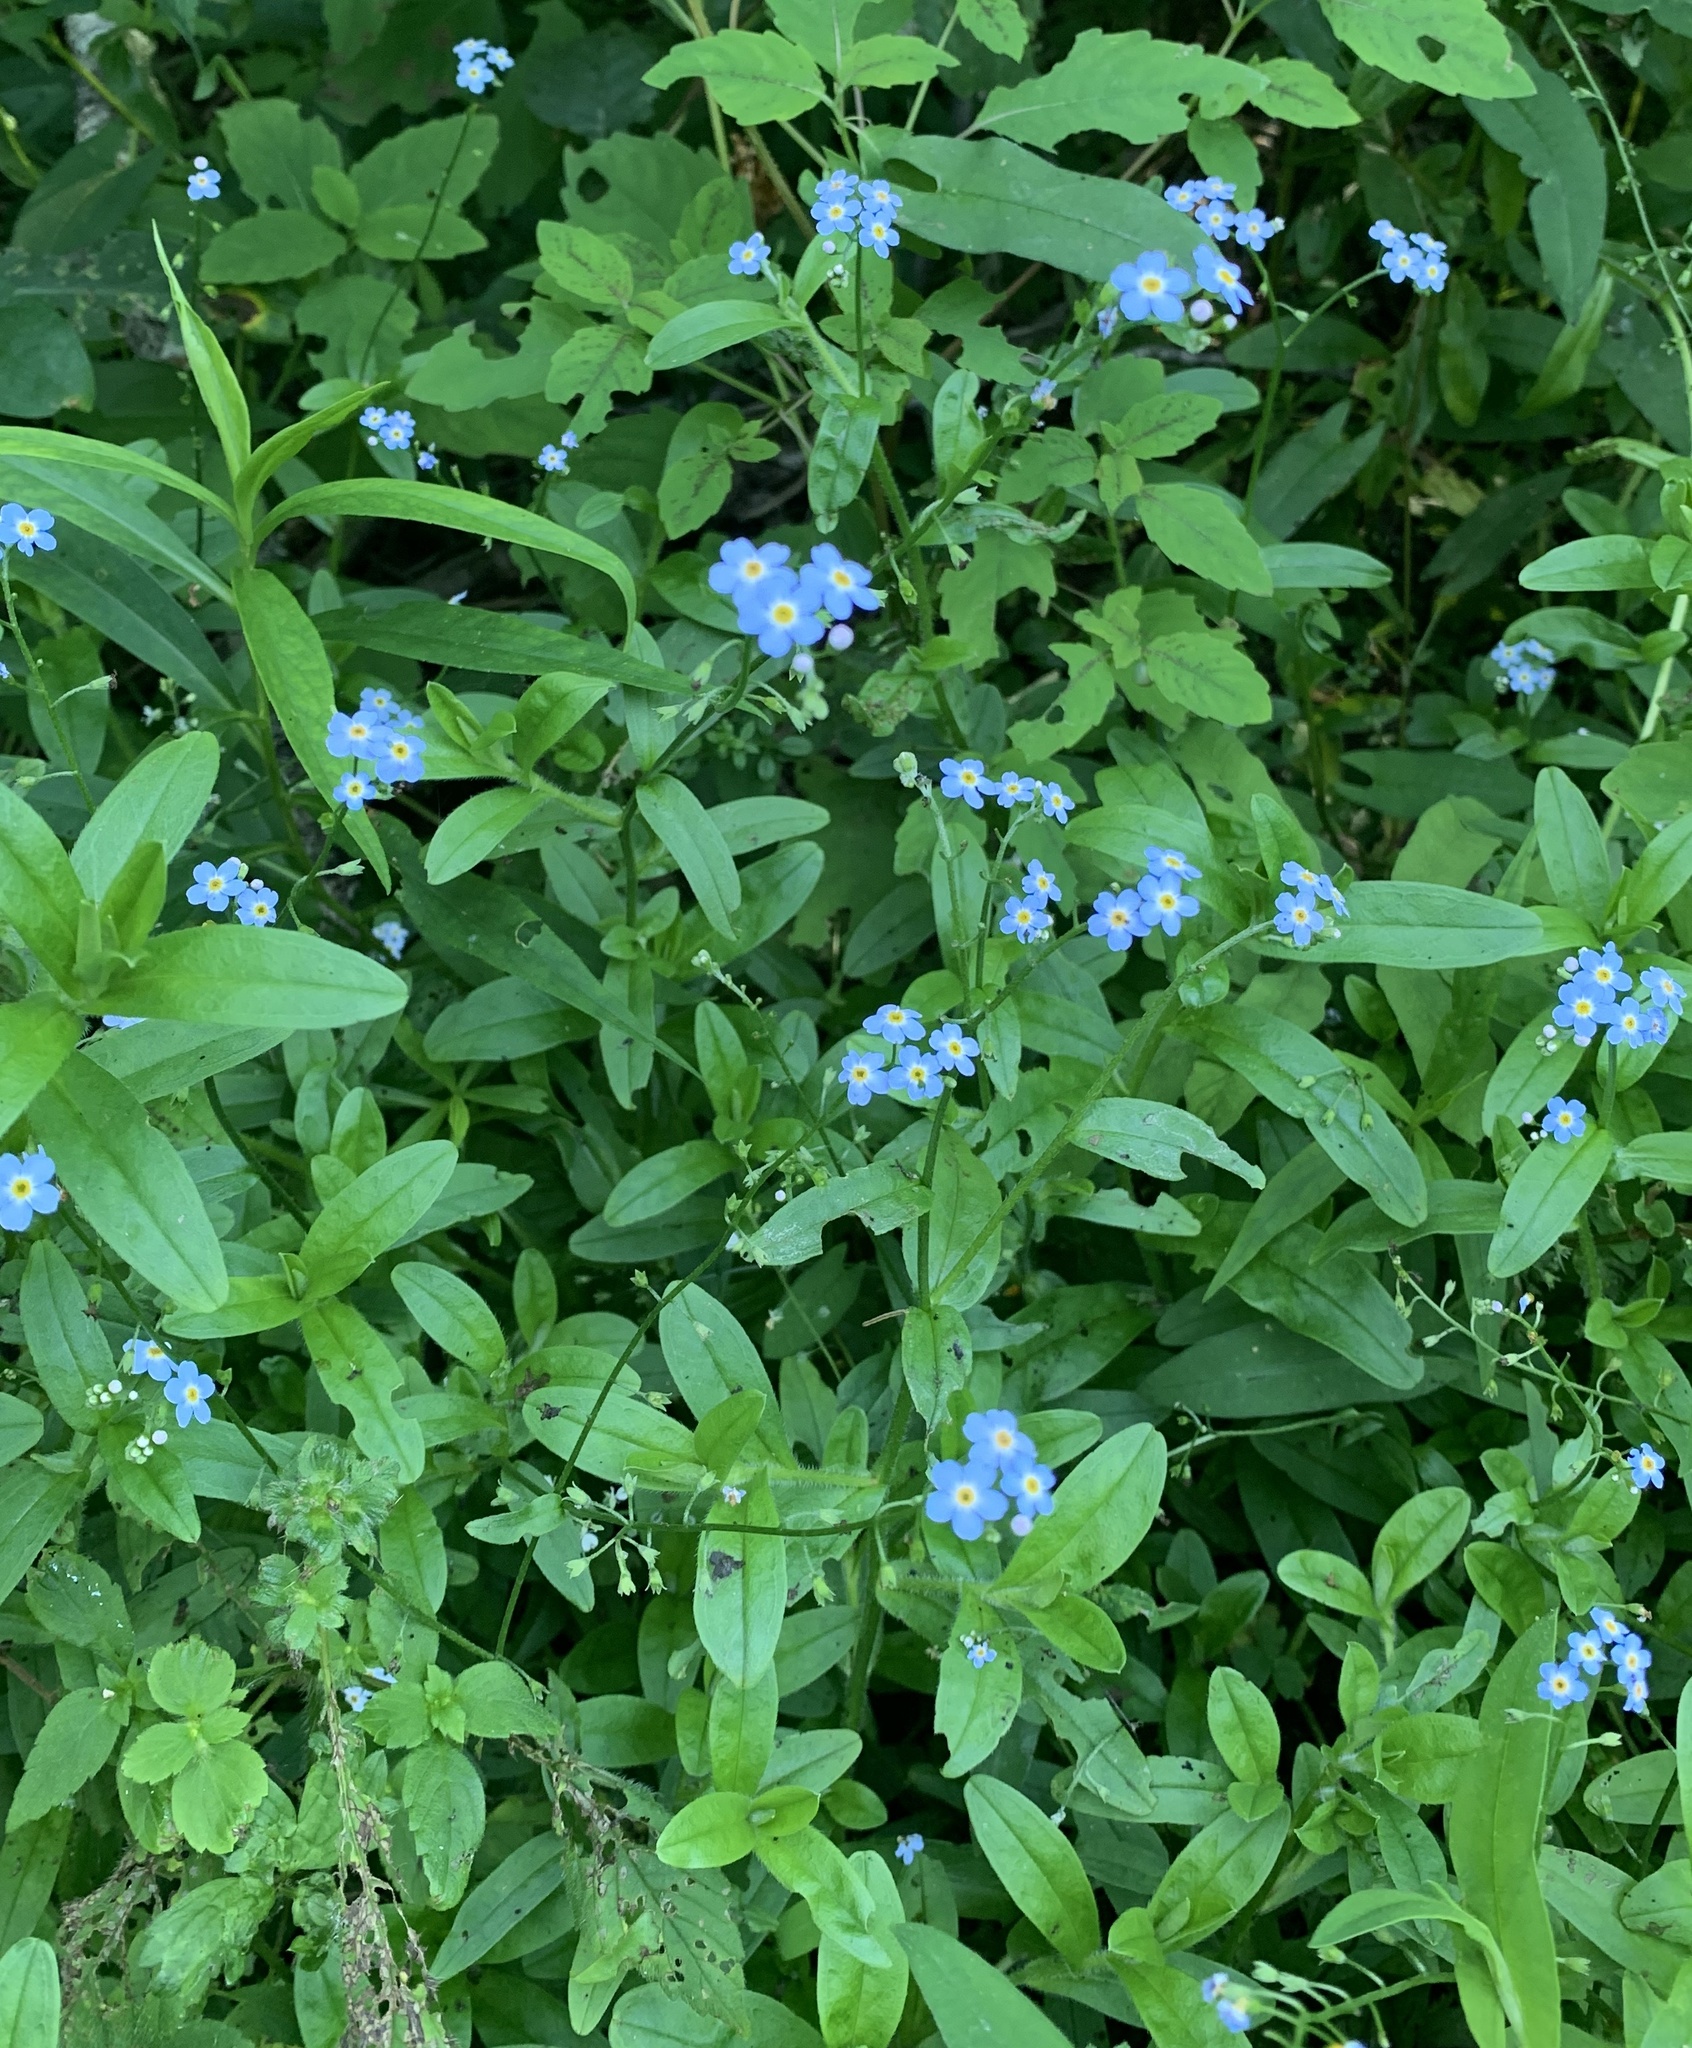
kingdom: Plantae
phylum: Tracheophyta
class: Magnoliopsida
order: Boraginales
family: Boraginaceae
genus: Myosotis
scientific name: Myosotis scorpioides
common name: Water forget-me-not
